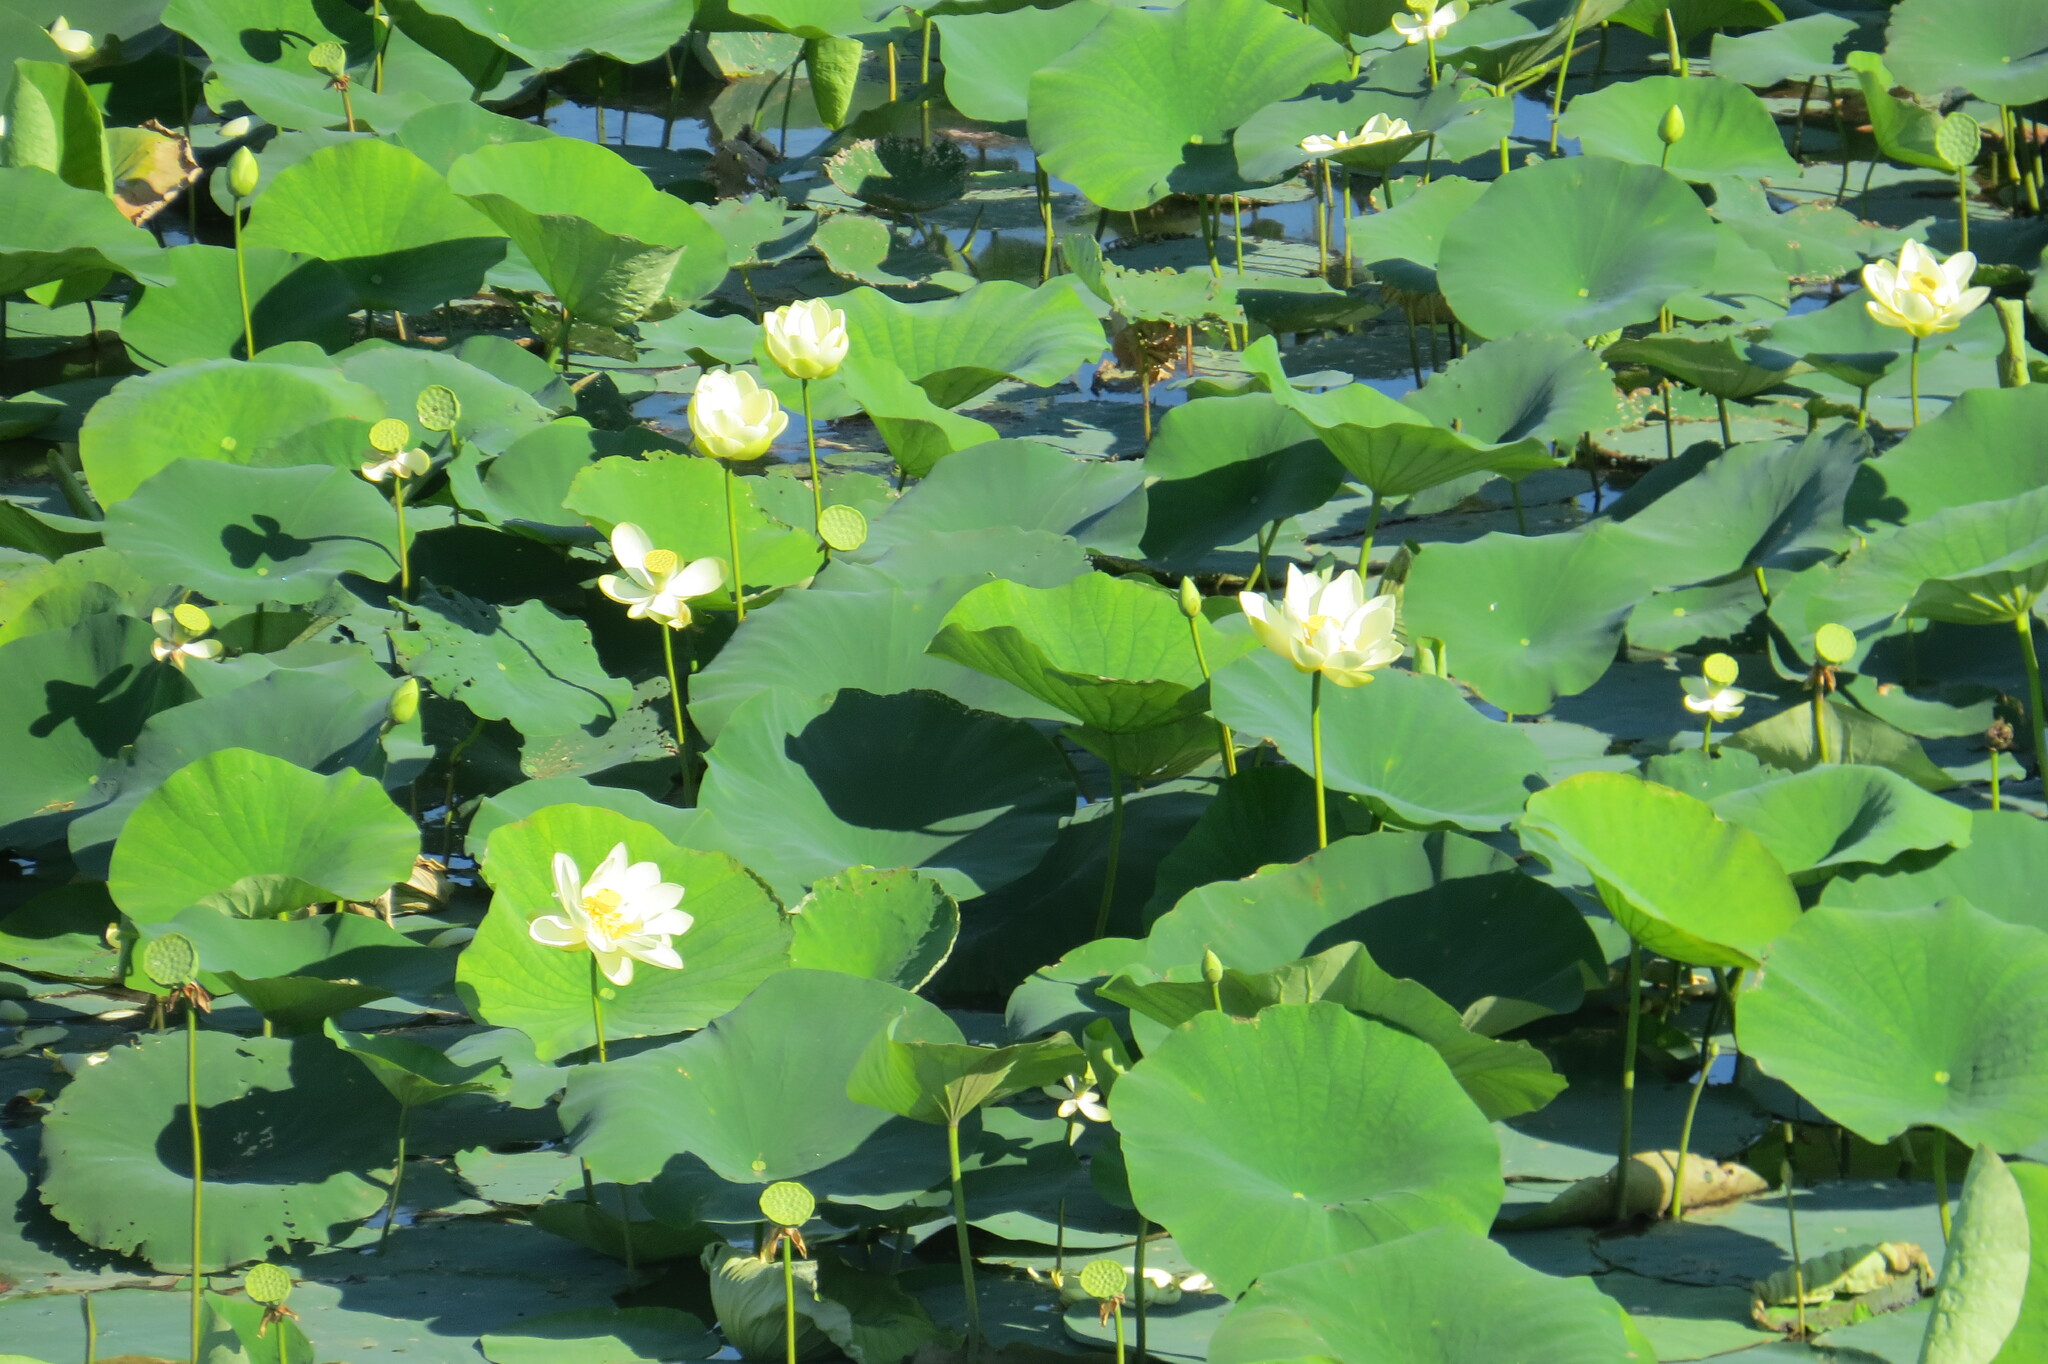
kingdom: Plantae
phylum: Tracheophyta
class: Magnoliopsida
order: Proteales
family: Nelumbonaceae
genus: Nelumbo
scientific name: Nelumbo lutea
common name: American lotus
